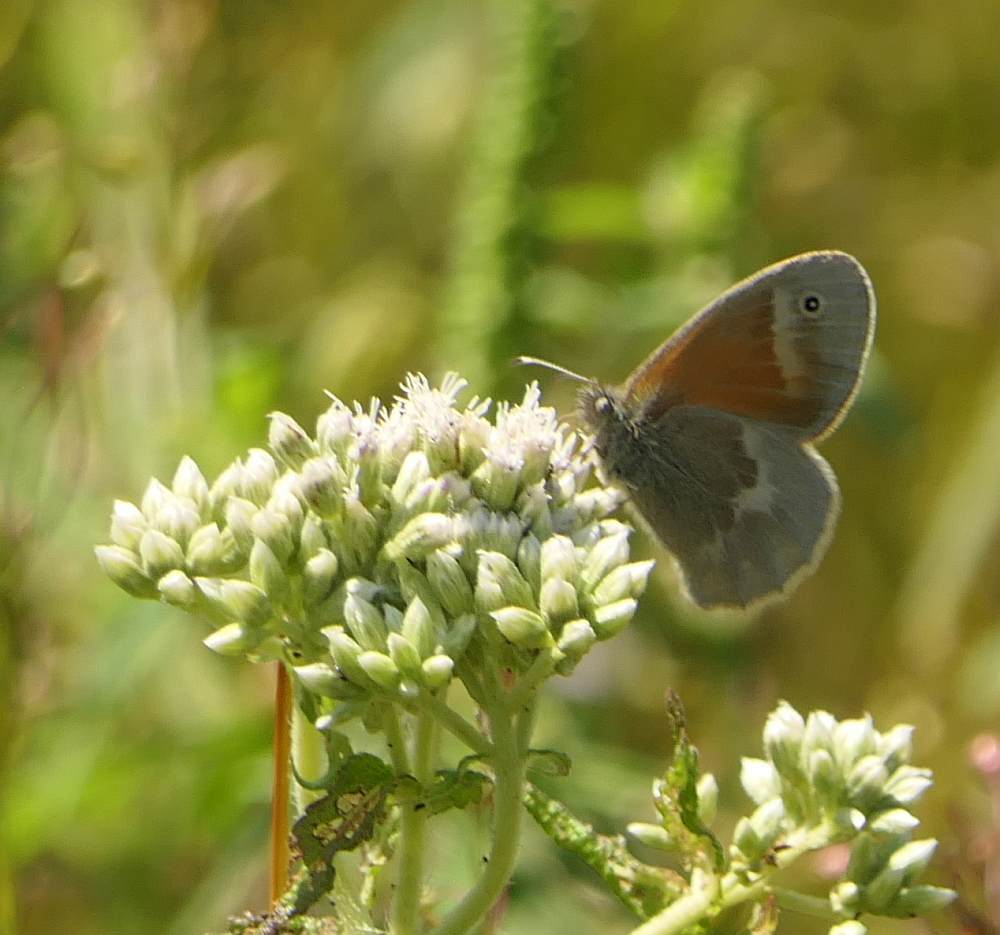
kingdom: Animalia
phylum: Arthropoda
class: Insecta
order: Lepidoptera
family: Nymphalidae
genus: Coenonympha
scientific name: Coenonympha california
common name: Common ringlet
